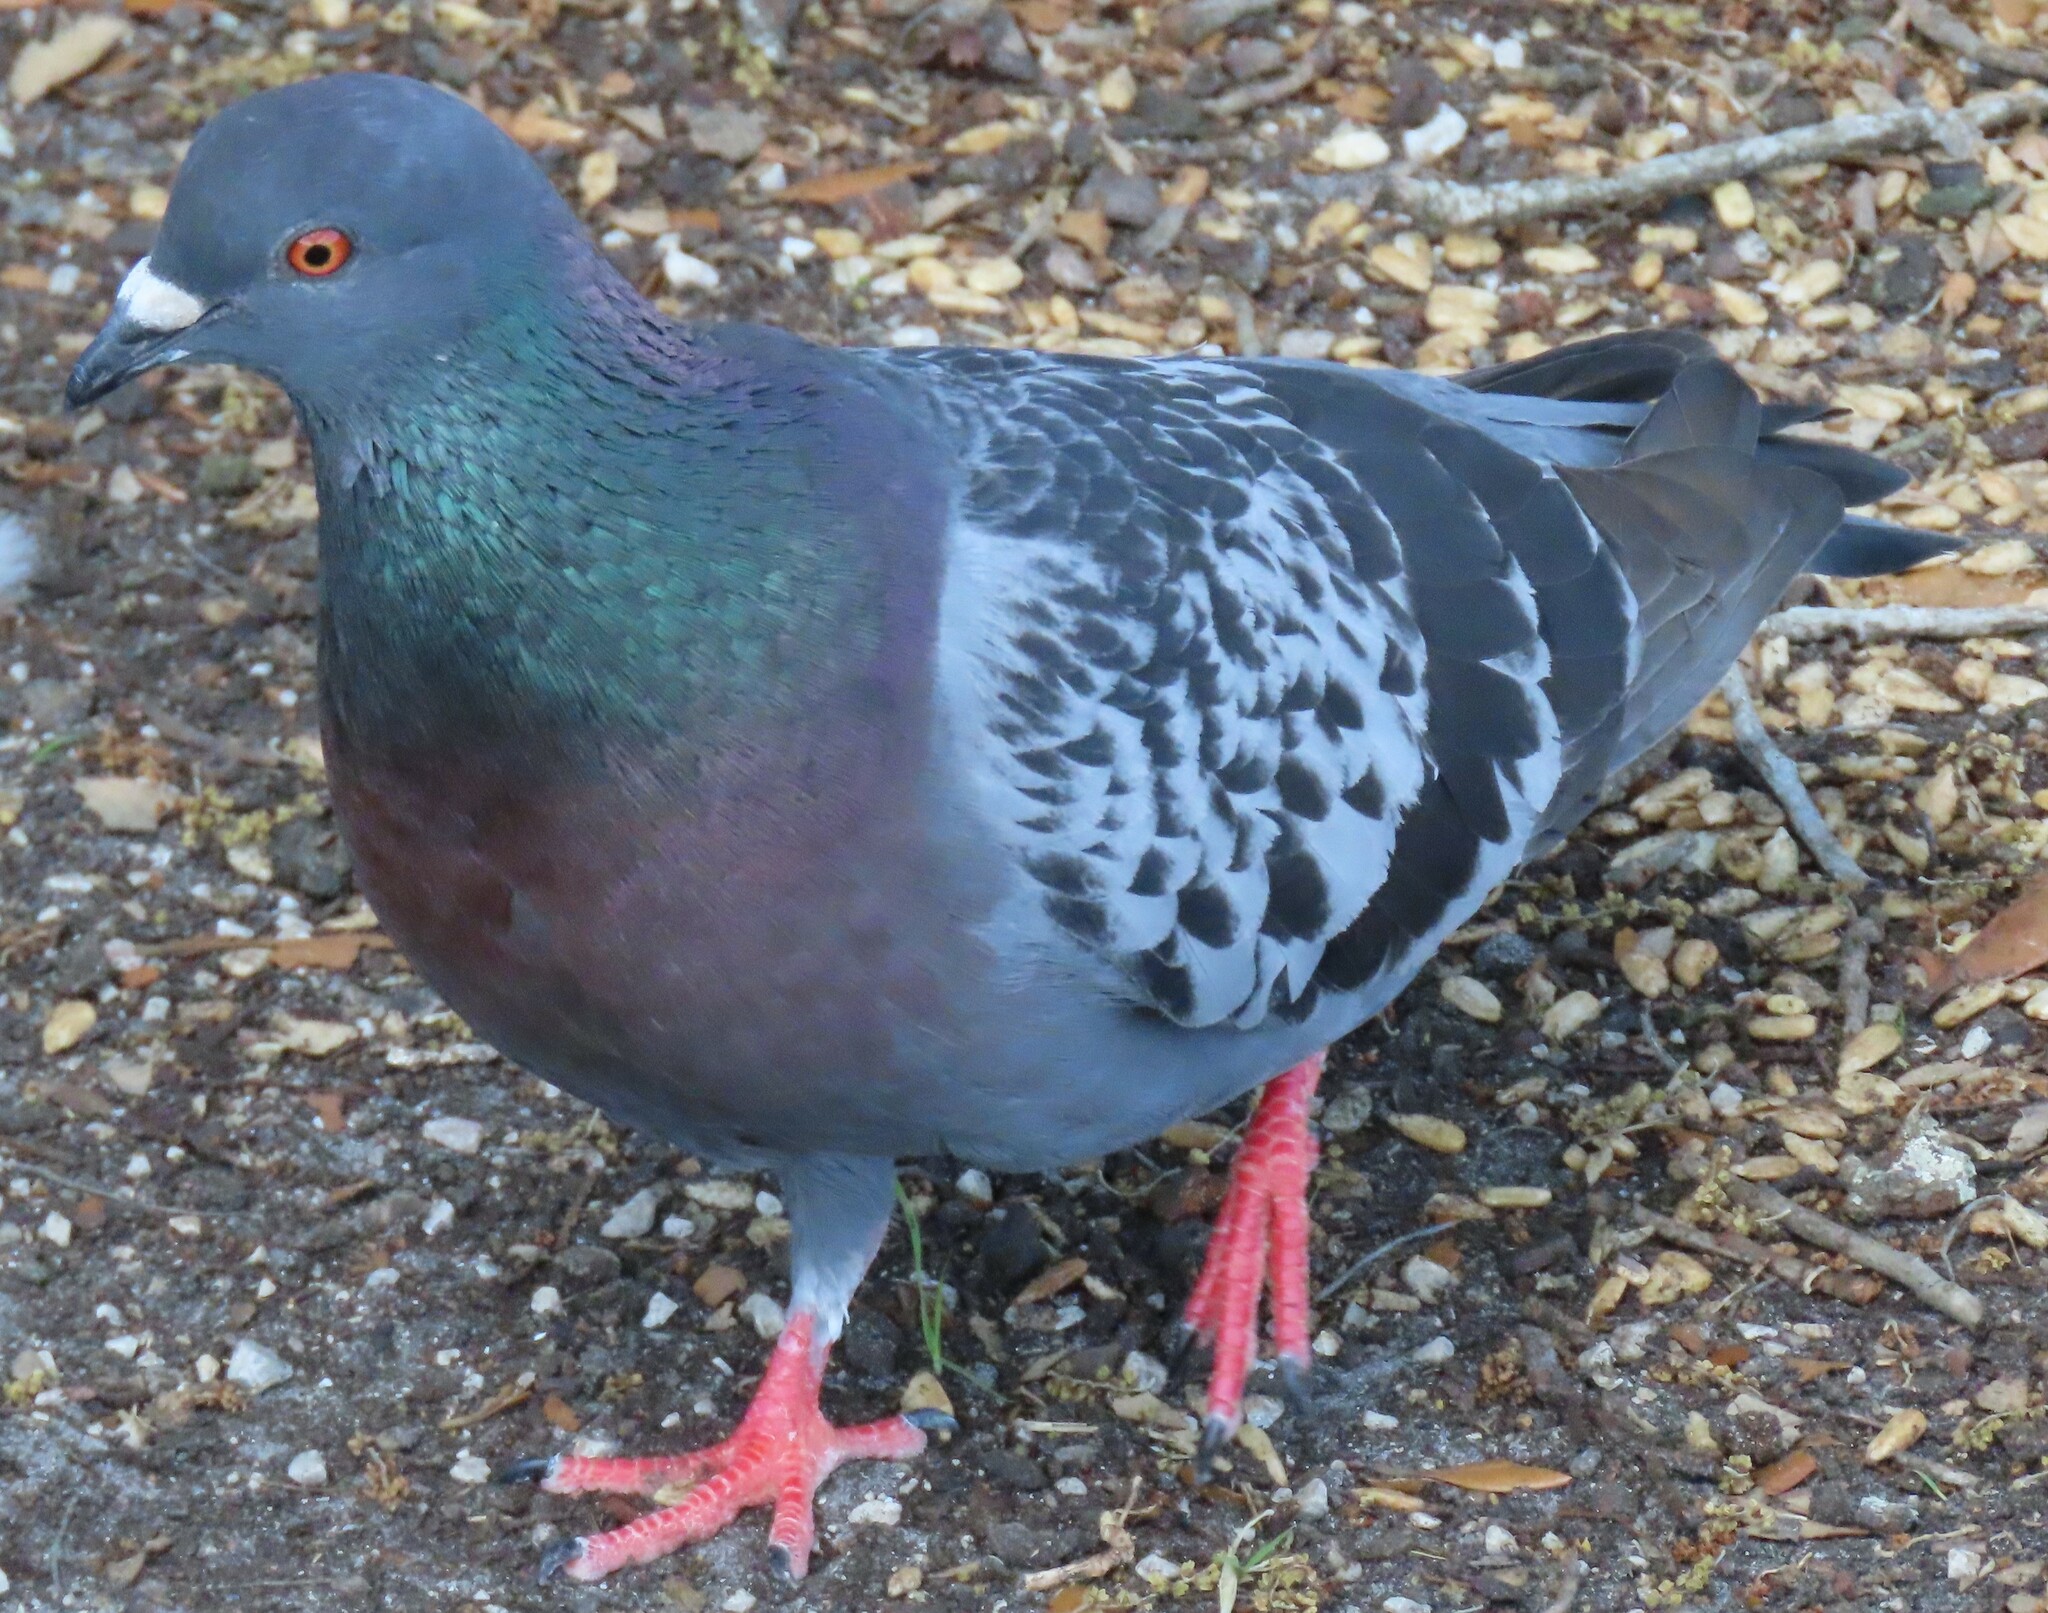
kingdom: Animalia
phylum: Chordata
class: Aves
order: Columbiformes
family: Columbidae
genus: Columba
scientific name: Columba livia
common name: Rock pigeon
